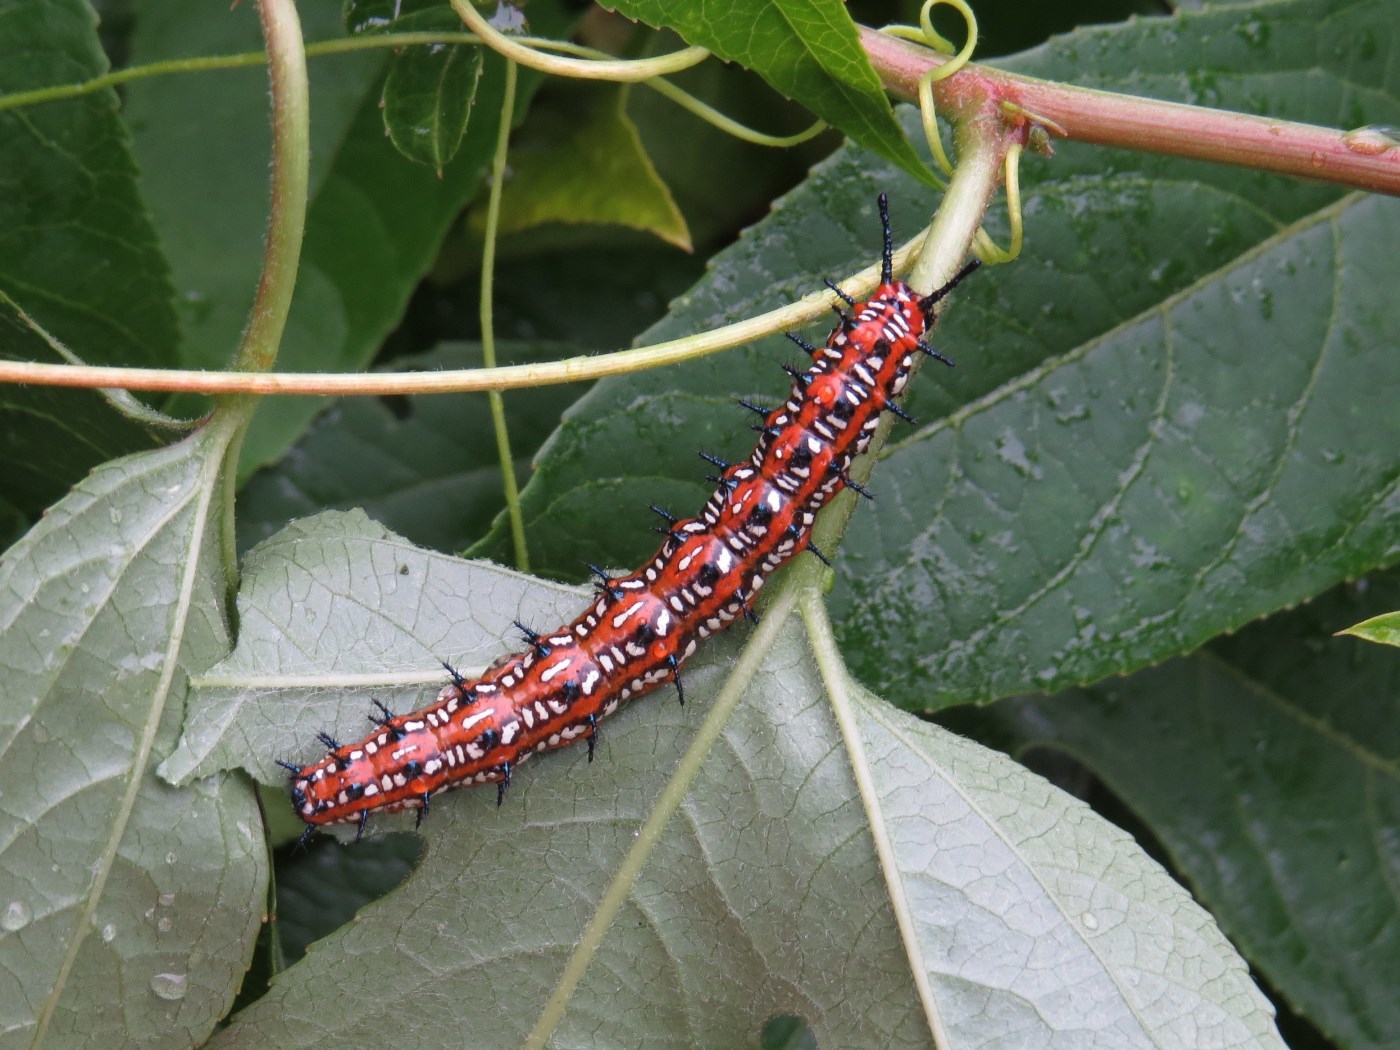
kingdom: Animalia
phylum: Arthropoda
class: Insecta
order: Lepidoptera
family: Nymphalidae
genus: Euptoieta
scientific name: Euptoieta claudia
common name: Variegated fritillary
